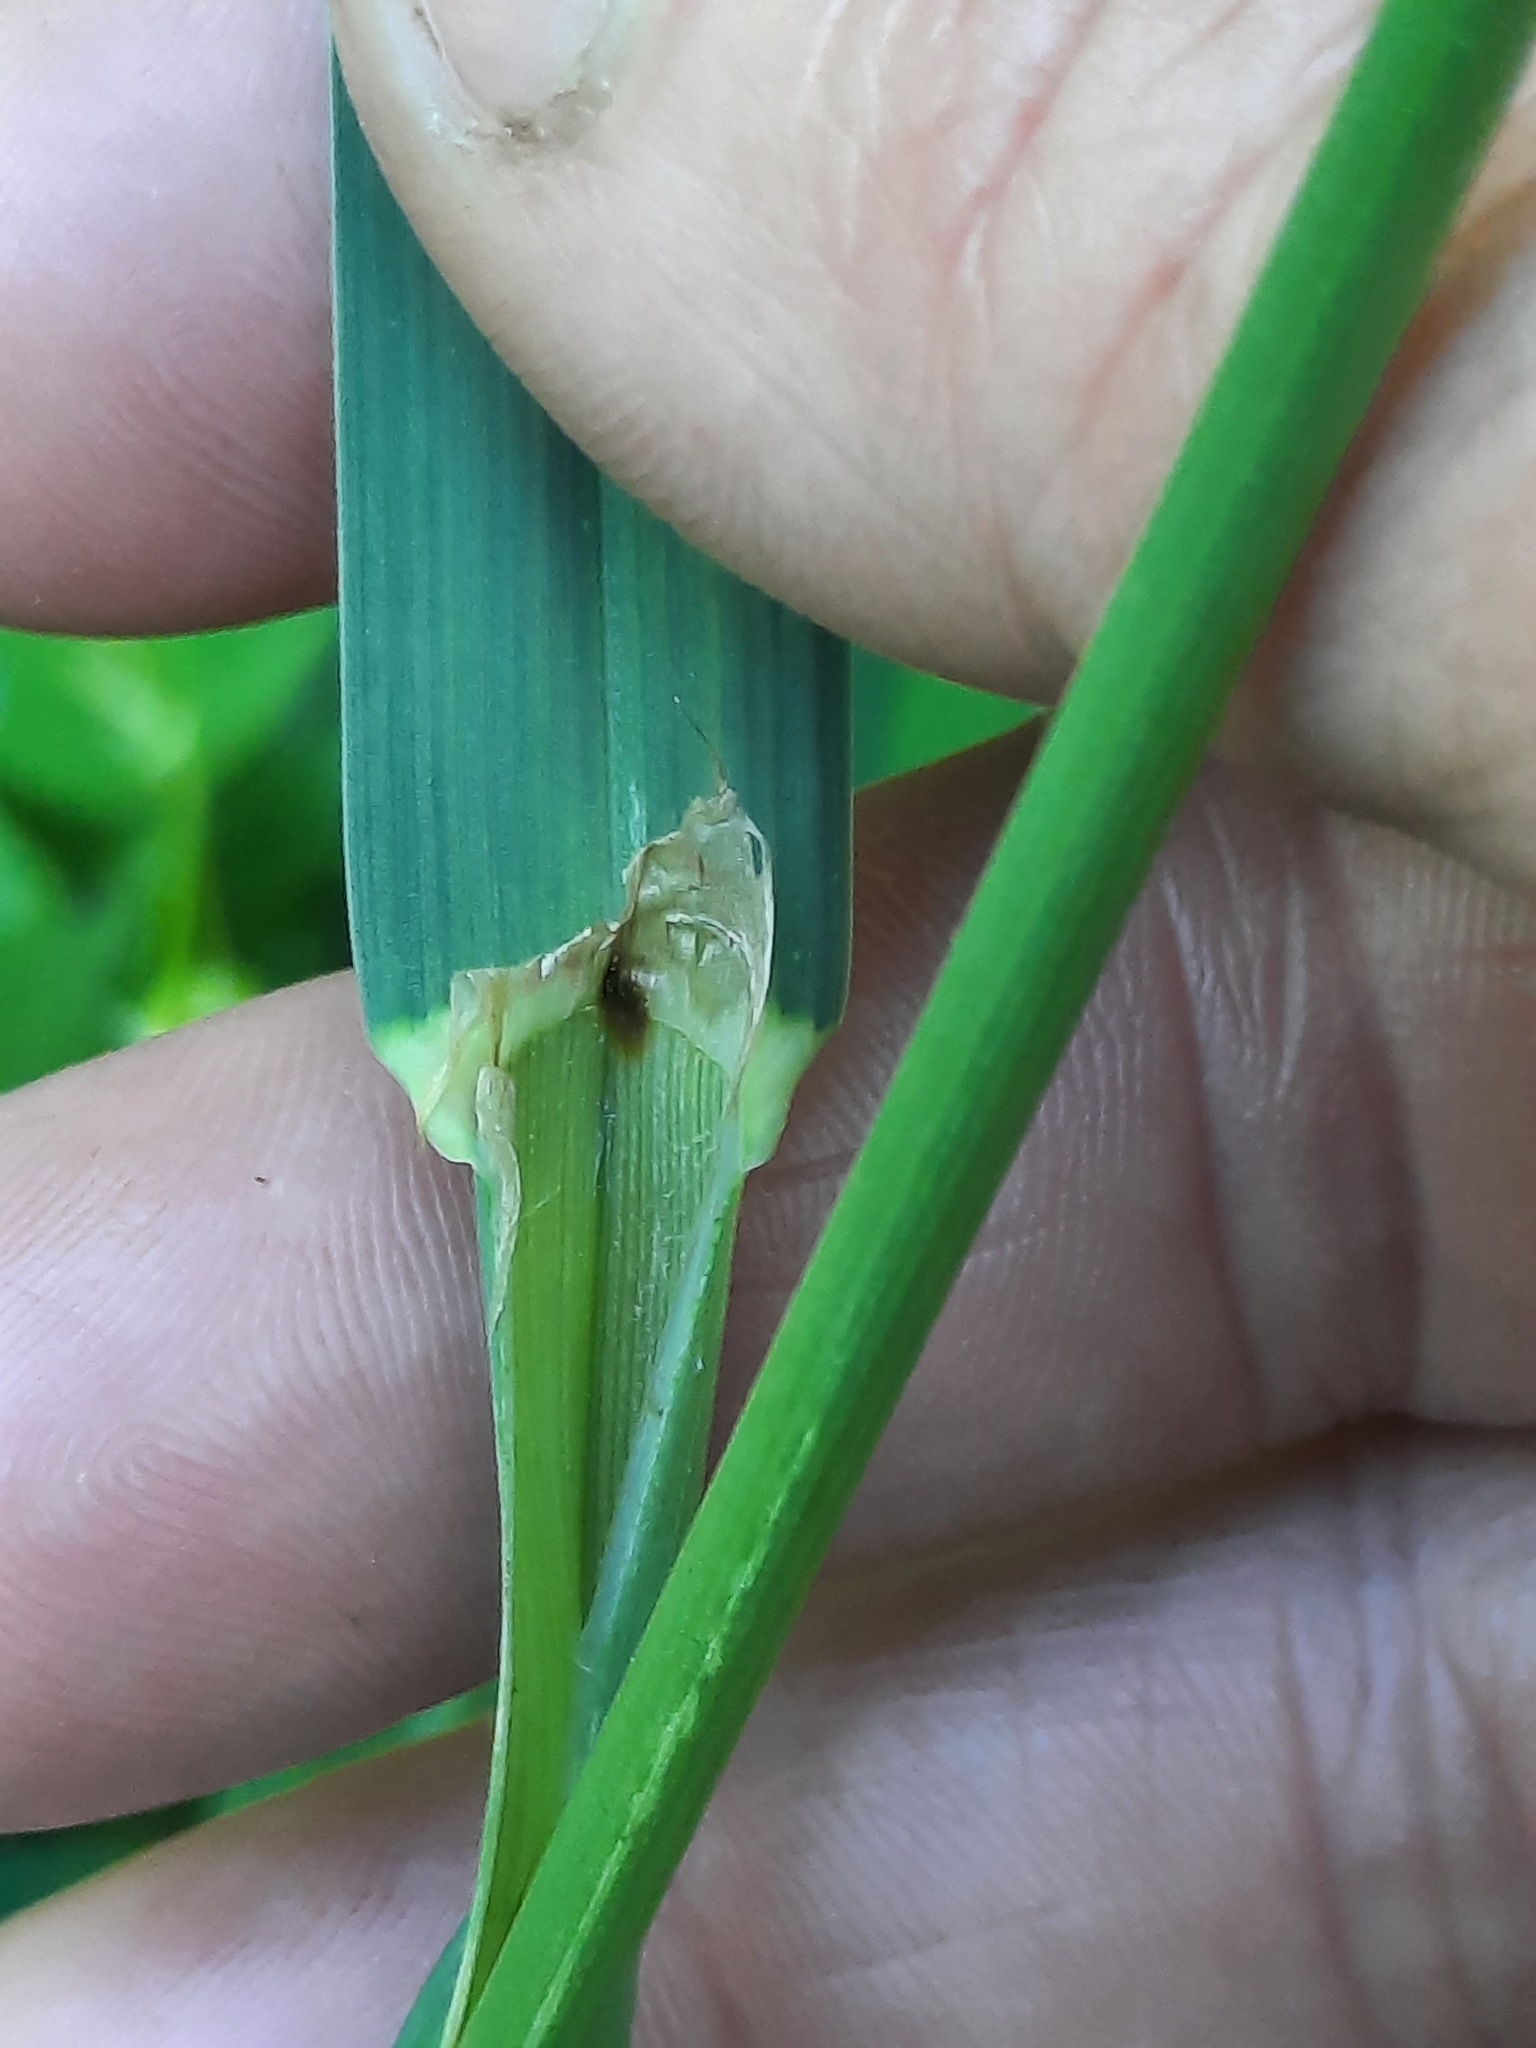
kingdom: Plantae
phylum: Tracheophyta
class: Liliopsida
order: Poales
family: Poaceae
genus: Dactylis
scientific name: Dactylis glomerata
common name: Orchardgrass
